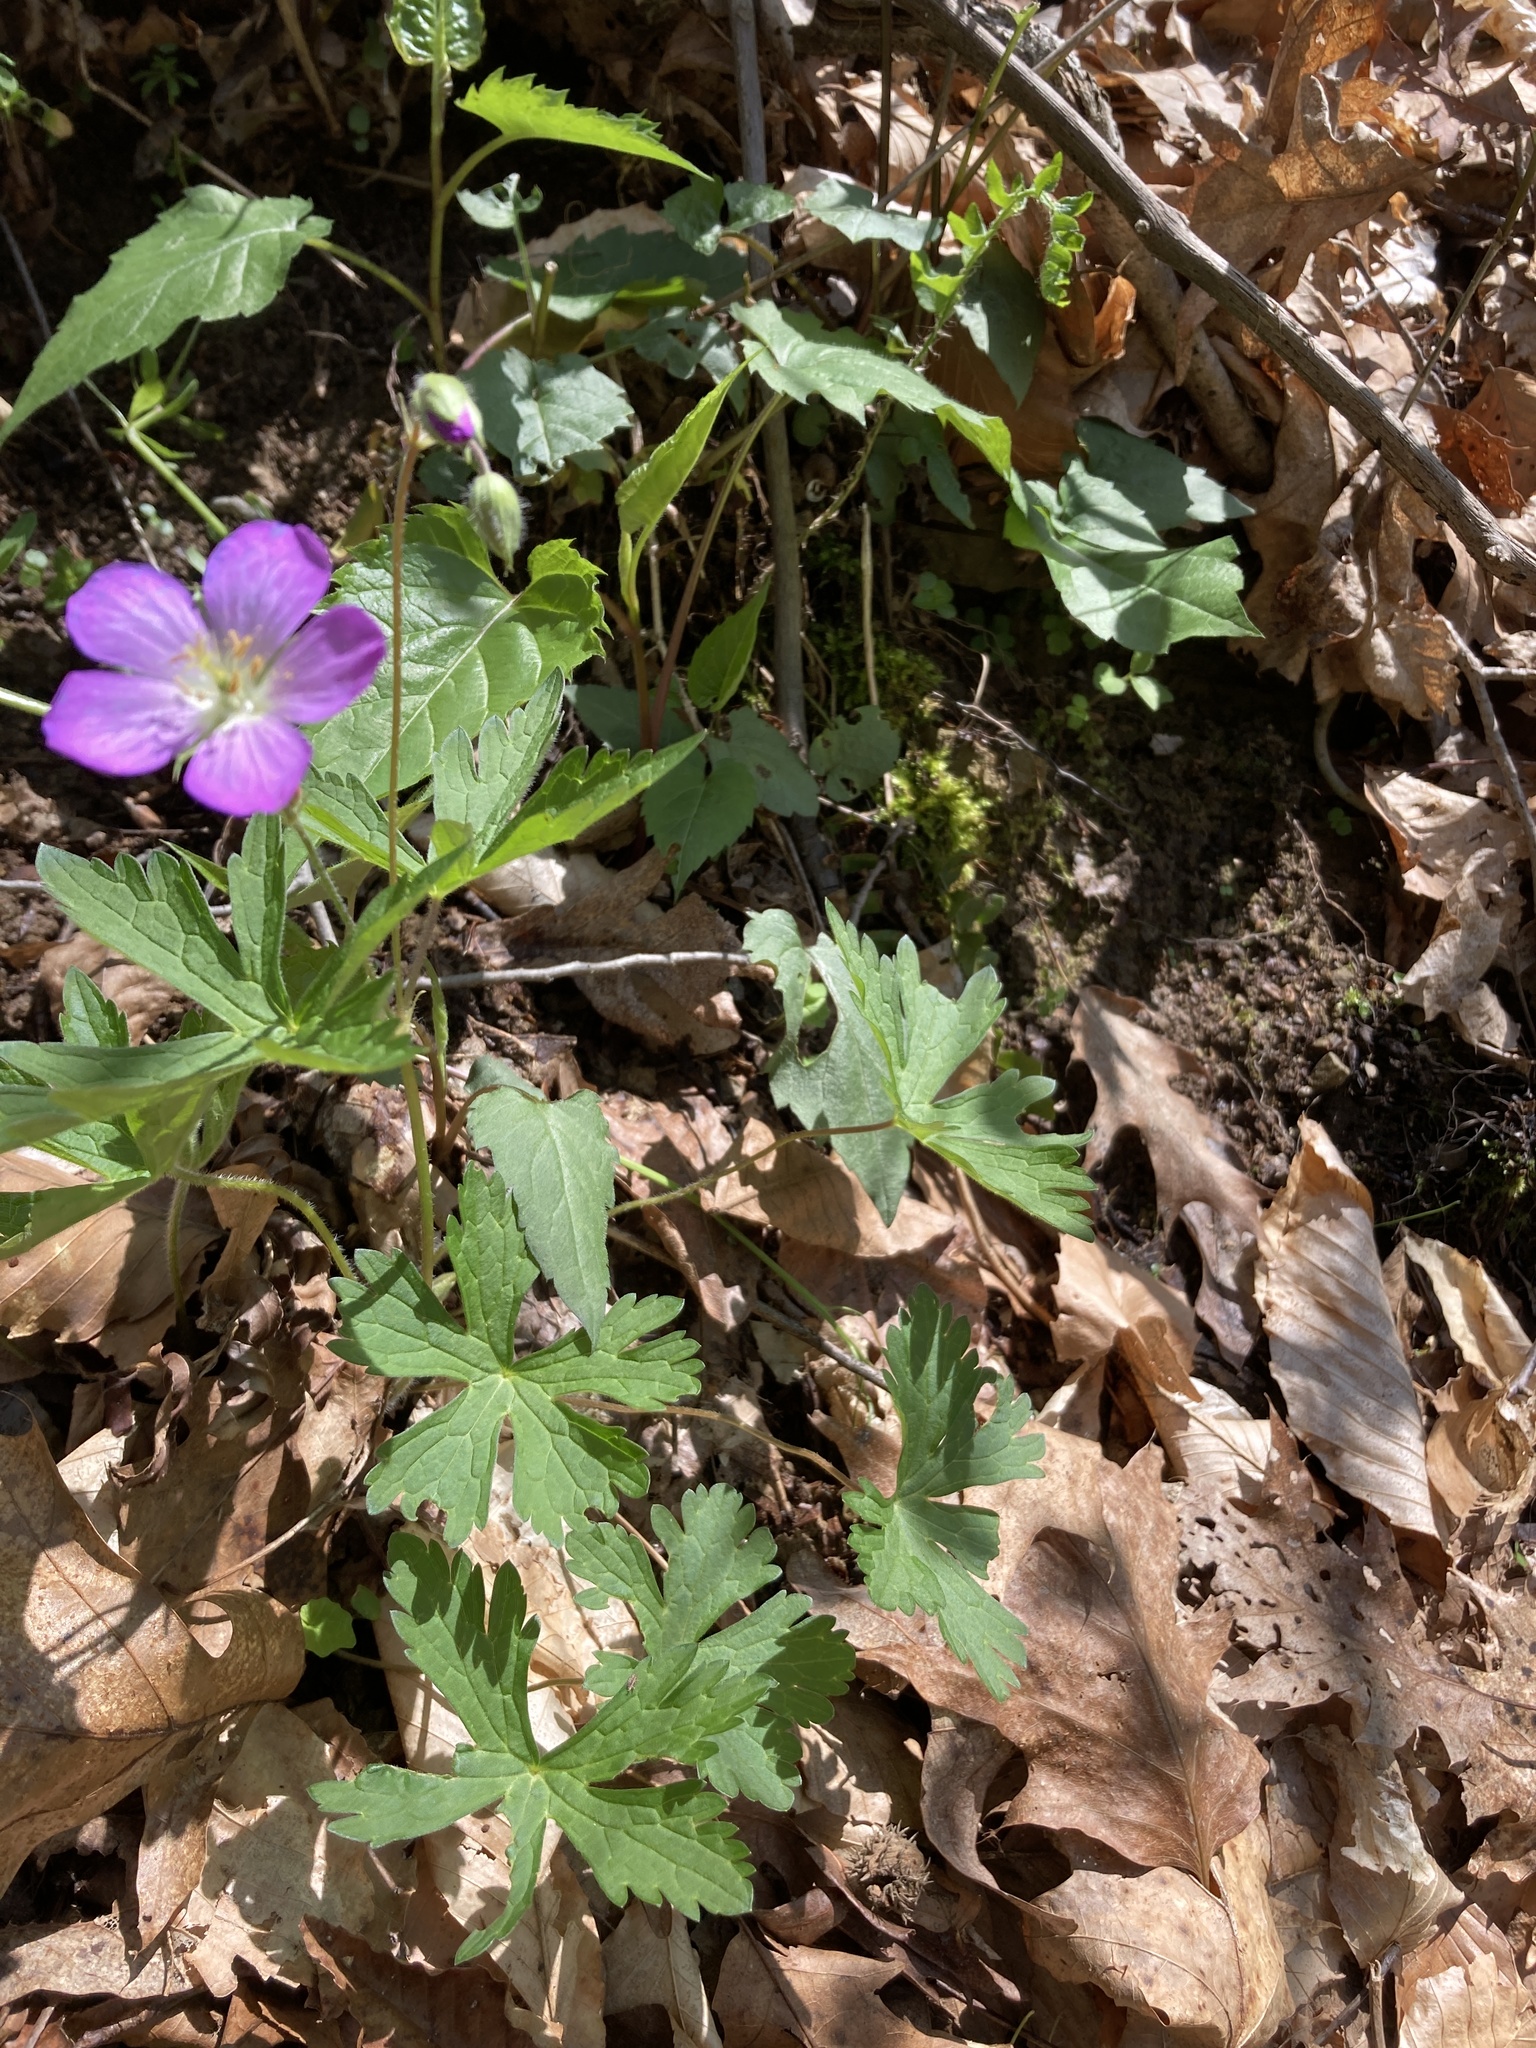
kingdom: Plantae
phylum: Tracheophyta
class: Magnoliopsida
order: Geraniales
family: Geraniaceae
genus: Geranium
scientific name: Geranium maculatum
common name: Spotted geranium
